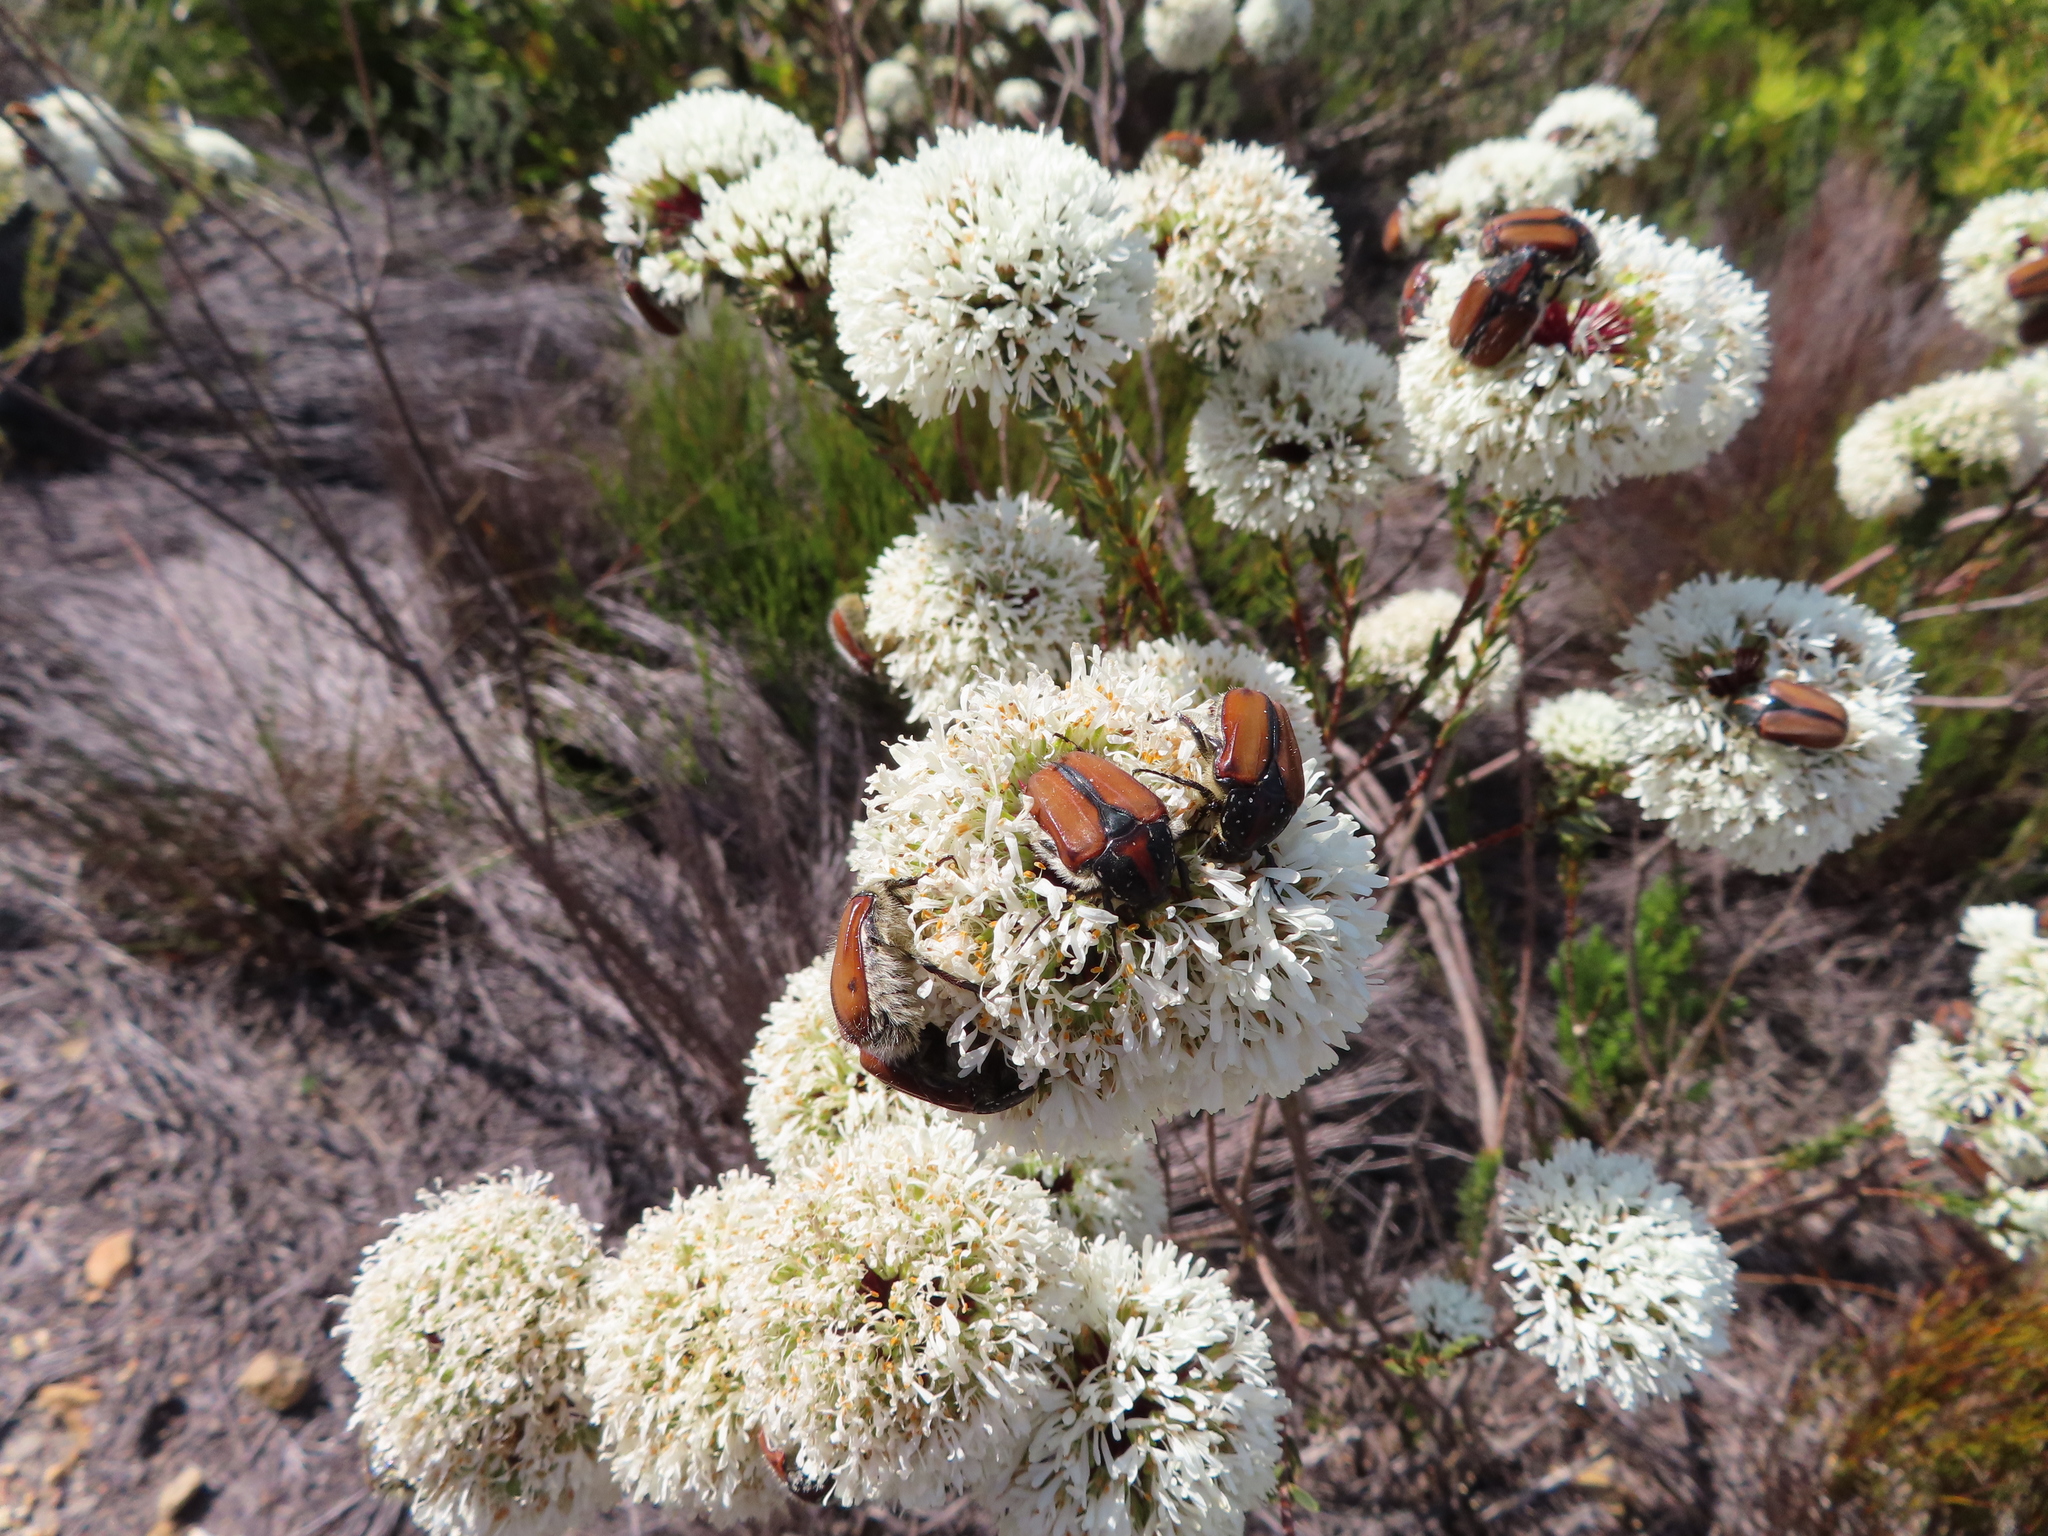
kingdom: Animalia
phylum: Arthropoda
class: Insecta
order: Coleoptera
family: Scarabaeidae
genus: Trichostetha
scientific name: Trichostetha capensis
